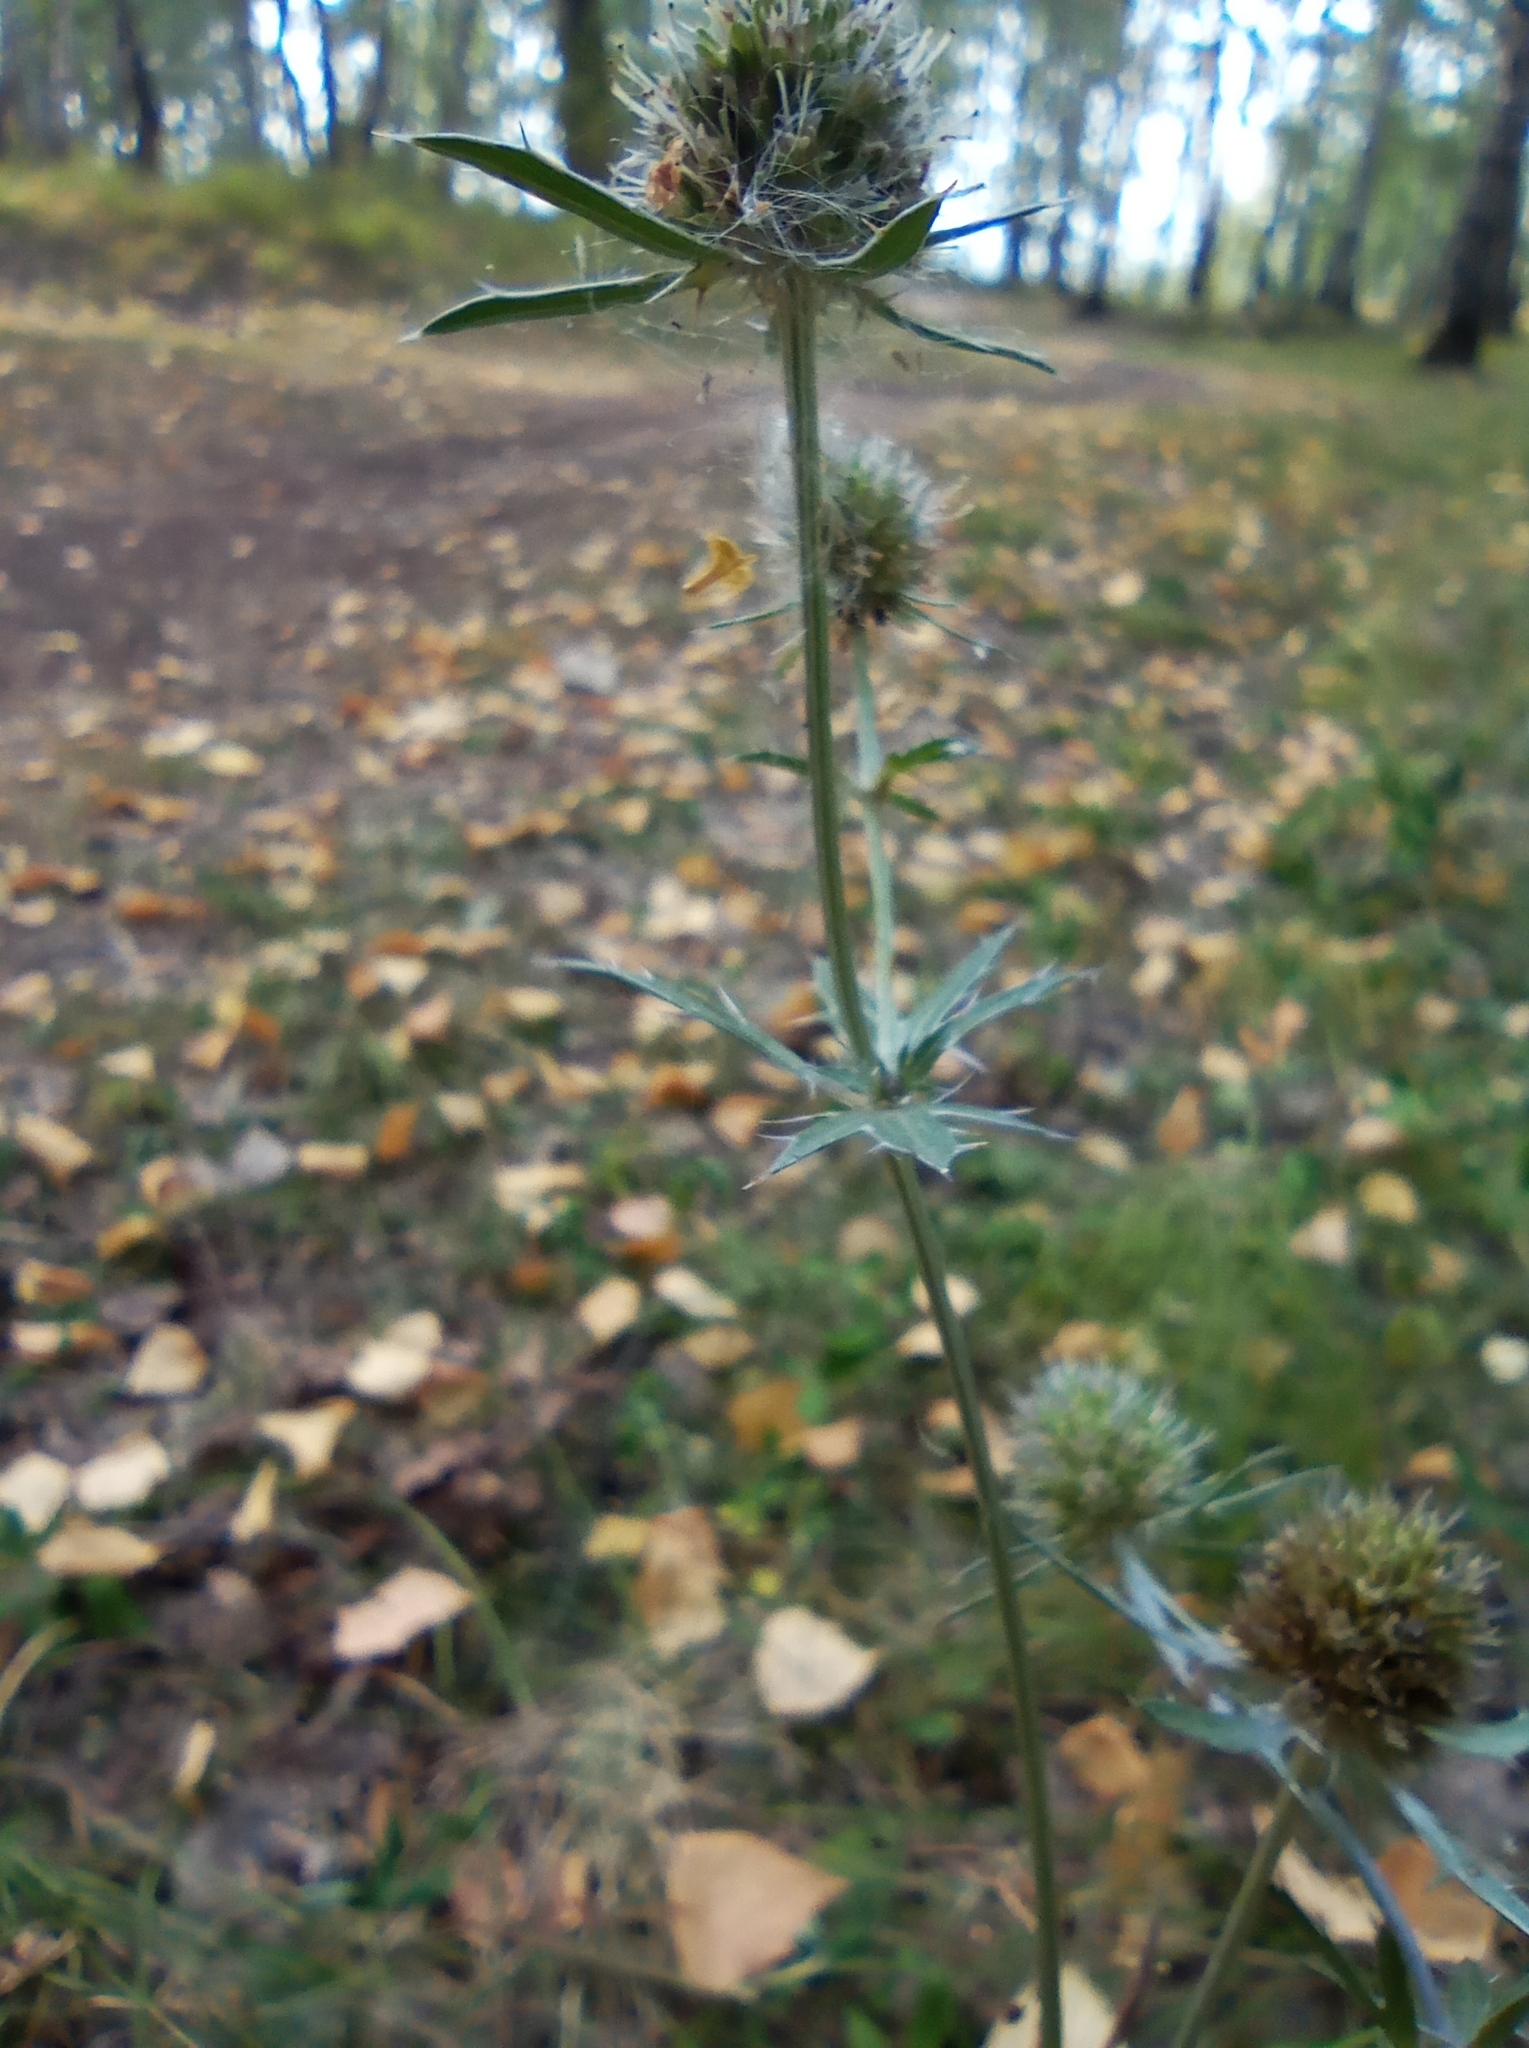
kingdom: Plantae
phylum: Tracheophyta
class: Magnoliopsida
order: Apiales
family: Apiaceae
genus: Eryngium
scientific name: Eryngium planum
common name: Blue eryngo
